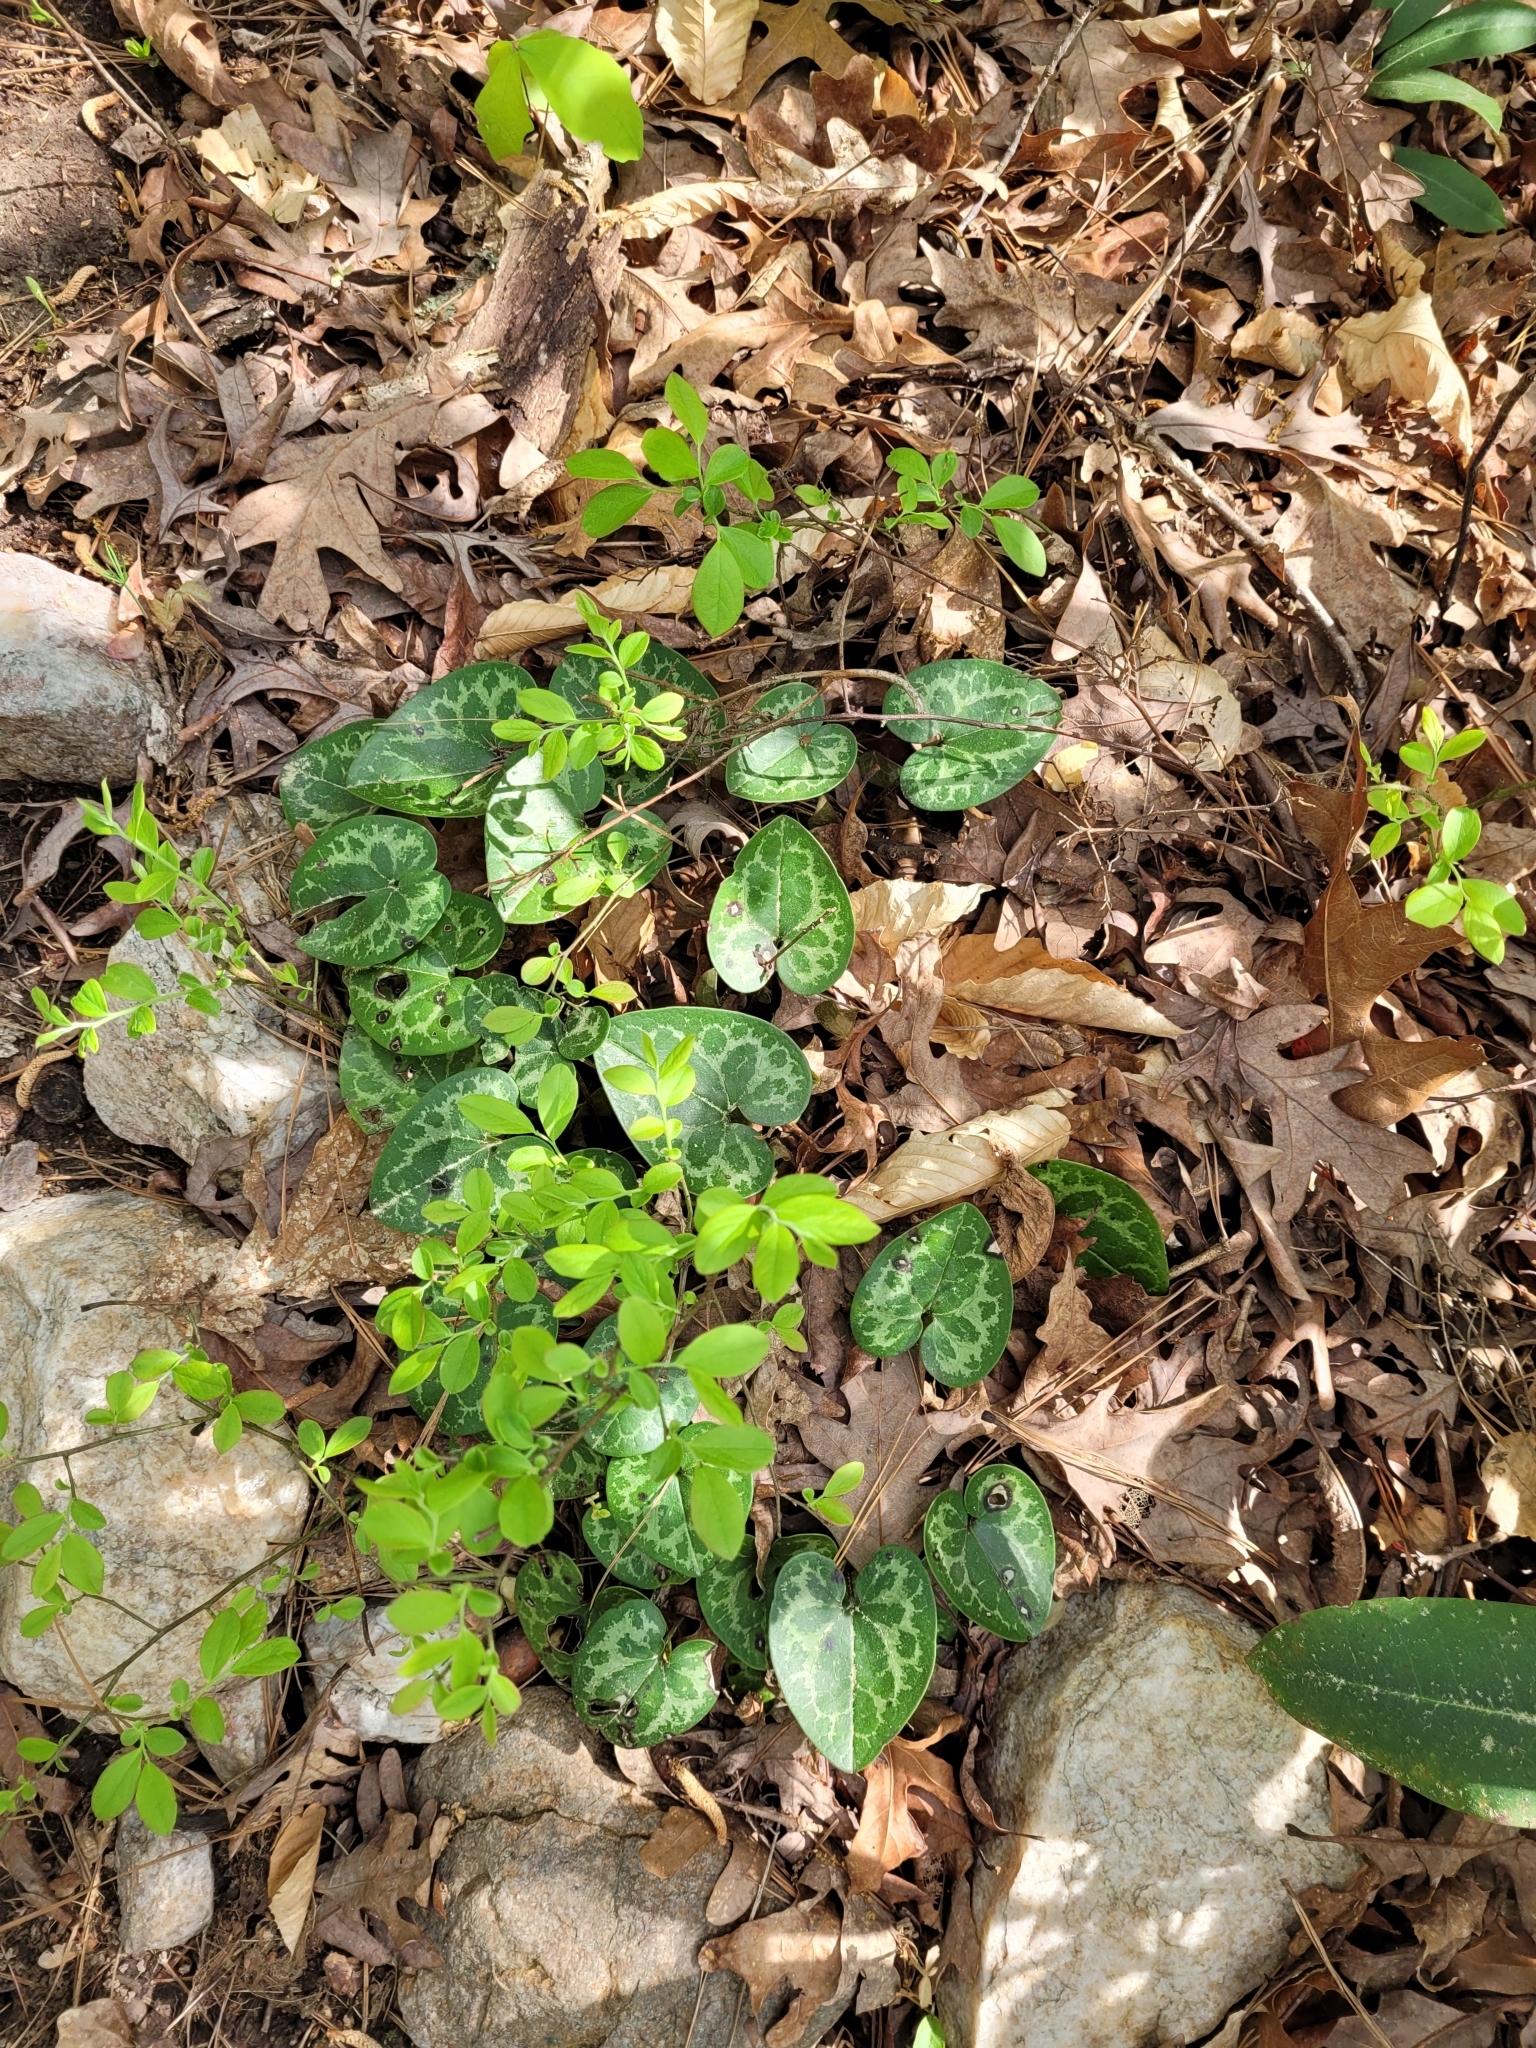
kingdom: Plantae
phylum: Tracheophyta
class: Magnoliopsida
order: Piperales
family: Aristolochiaceae
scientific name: Aristolochiaceae
